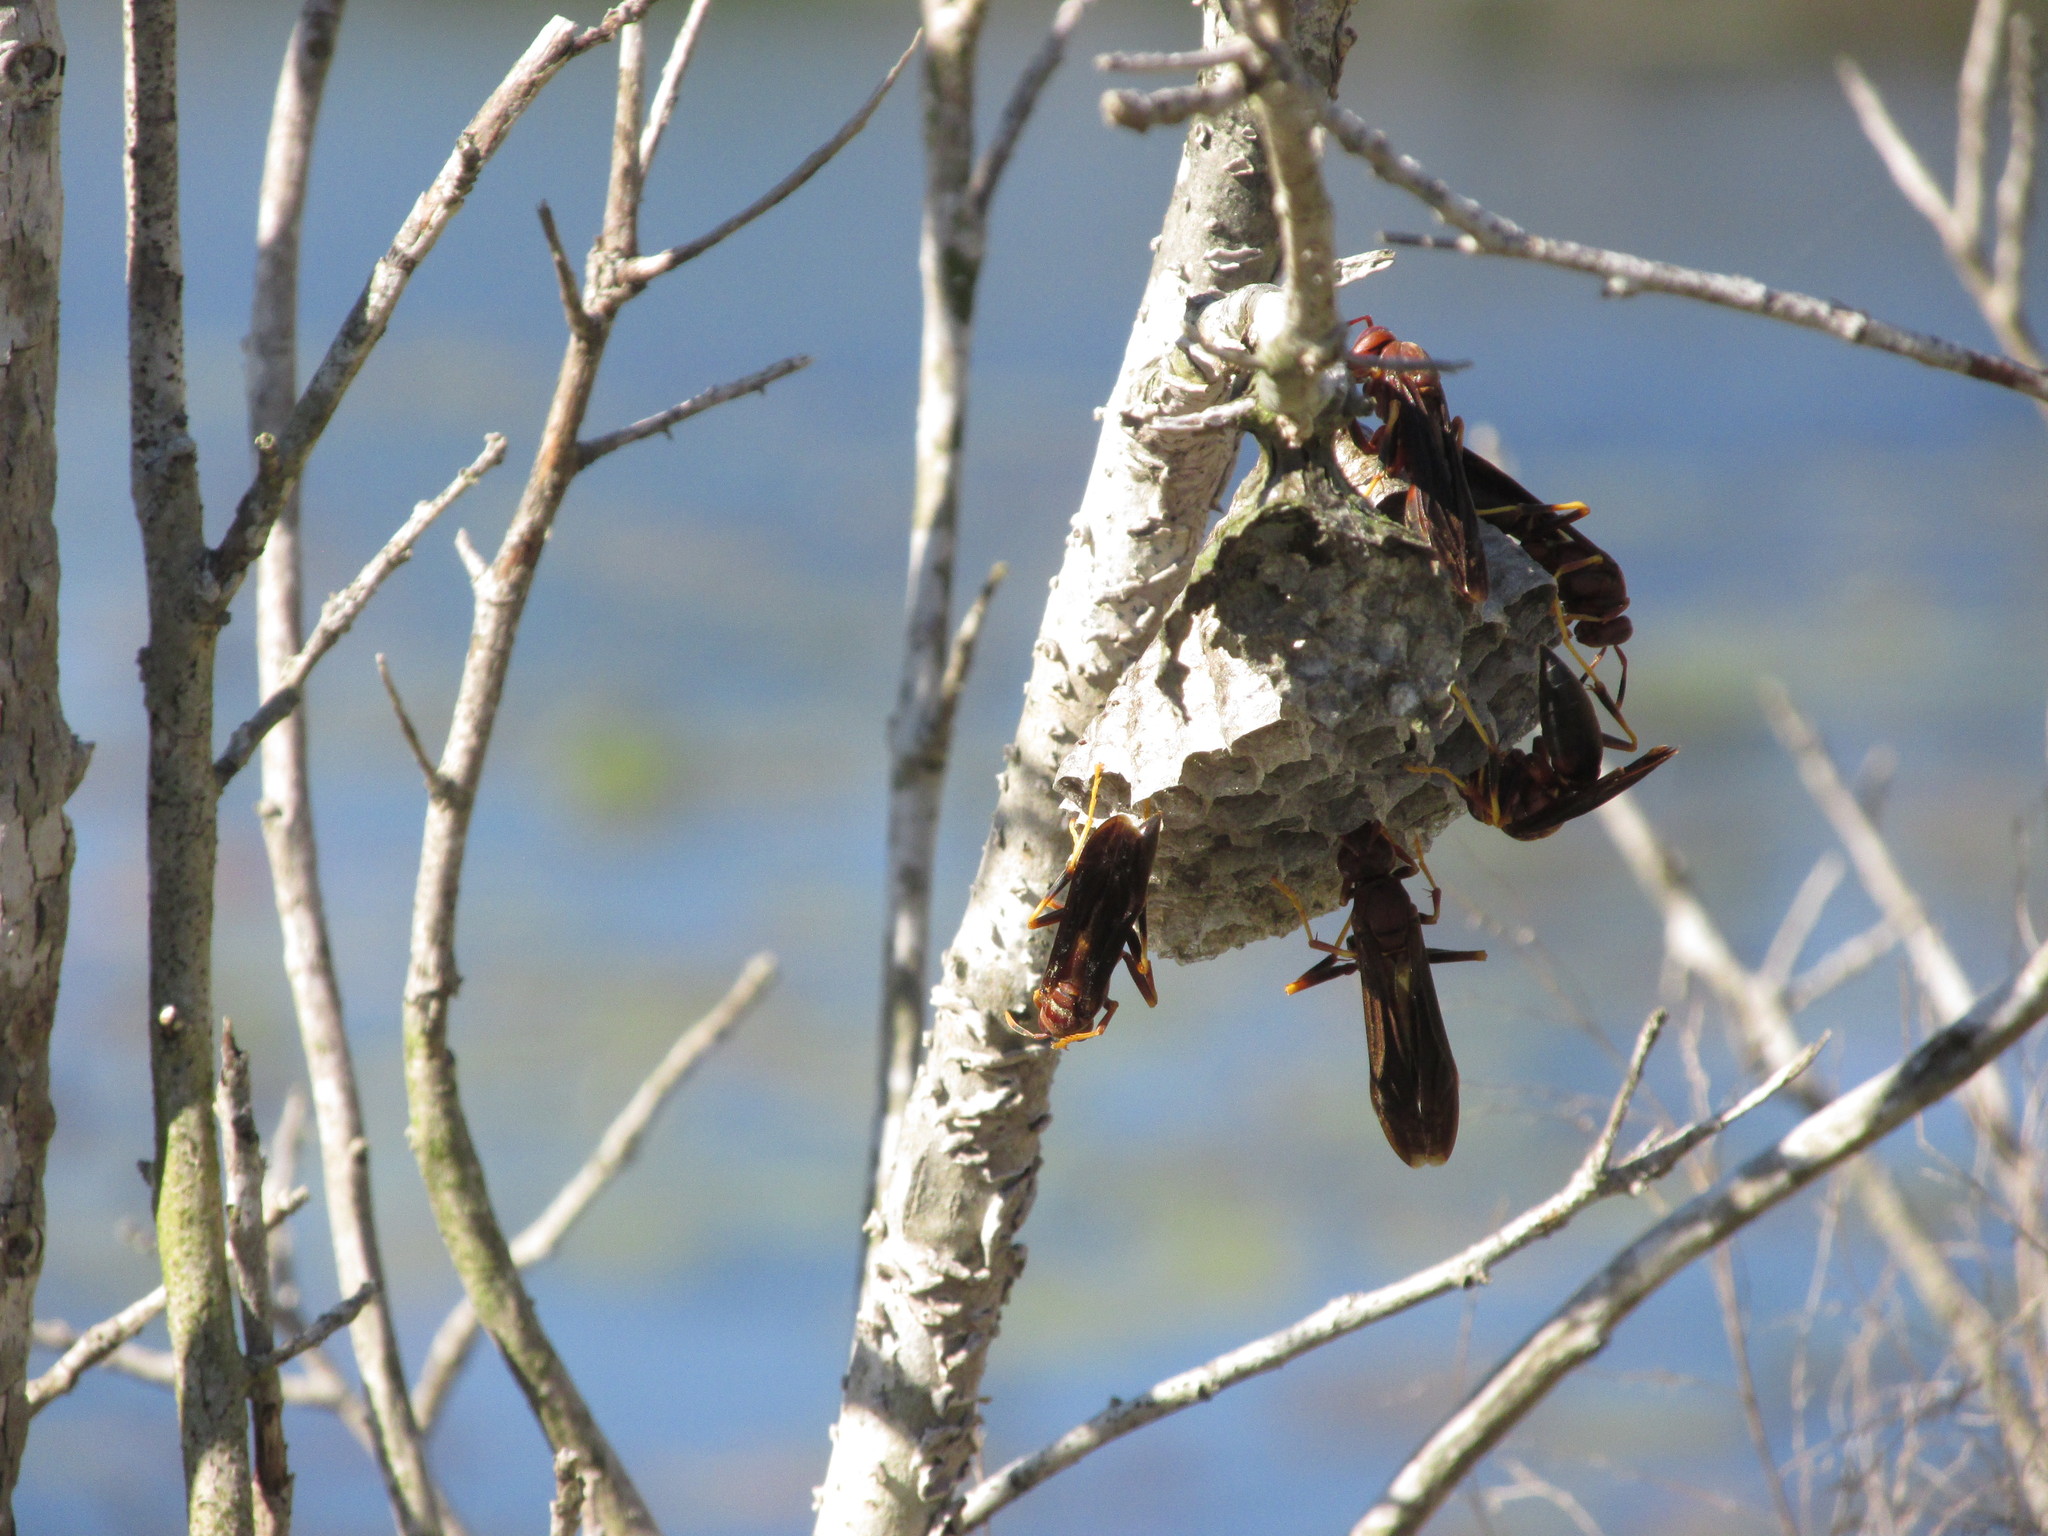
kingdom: Animalia
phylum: Arthropoda
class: Insecta
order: Hymenoptera
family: Eumenidae
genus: Polistes
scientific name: Polistes annularis
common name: Ringed paper wasp
